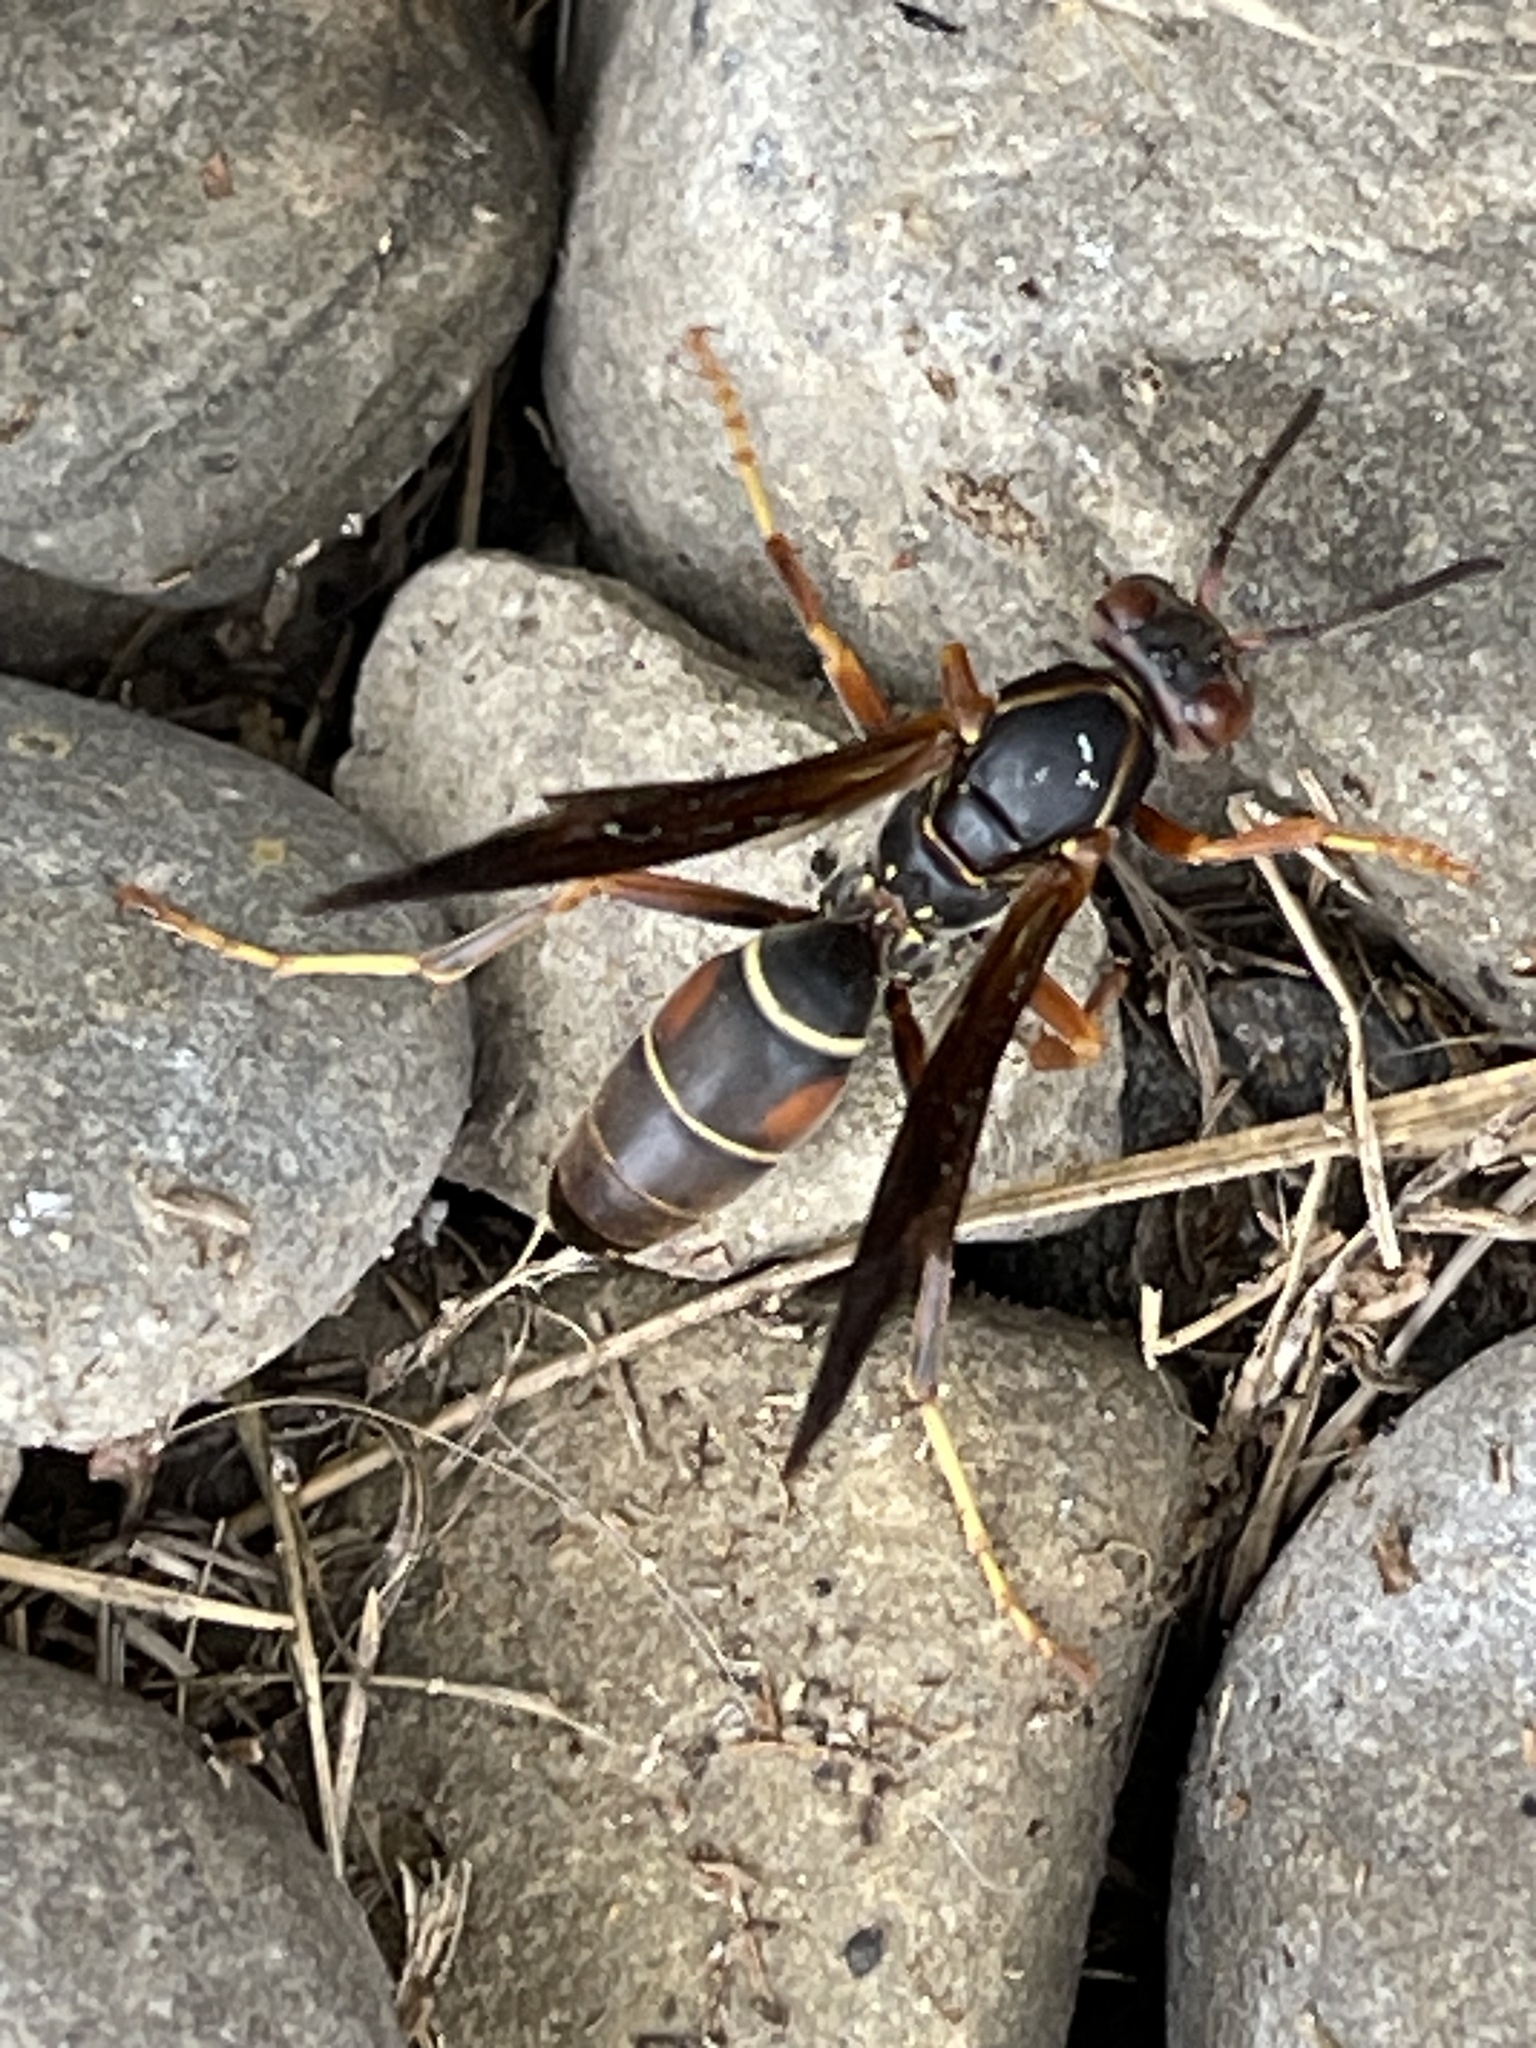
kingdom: Animalia
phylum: Arthropoda
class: Insecta
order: Hymenoptera
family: Eumenidae
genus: Polistes
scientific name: Polistes fuscatus
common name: Dark paper wasp
